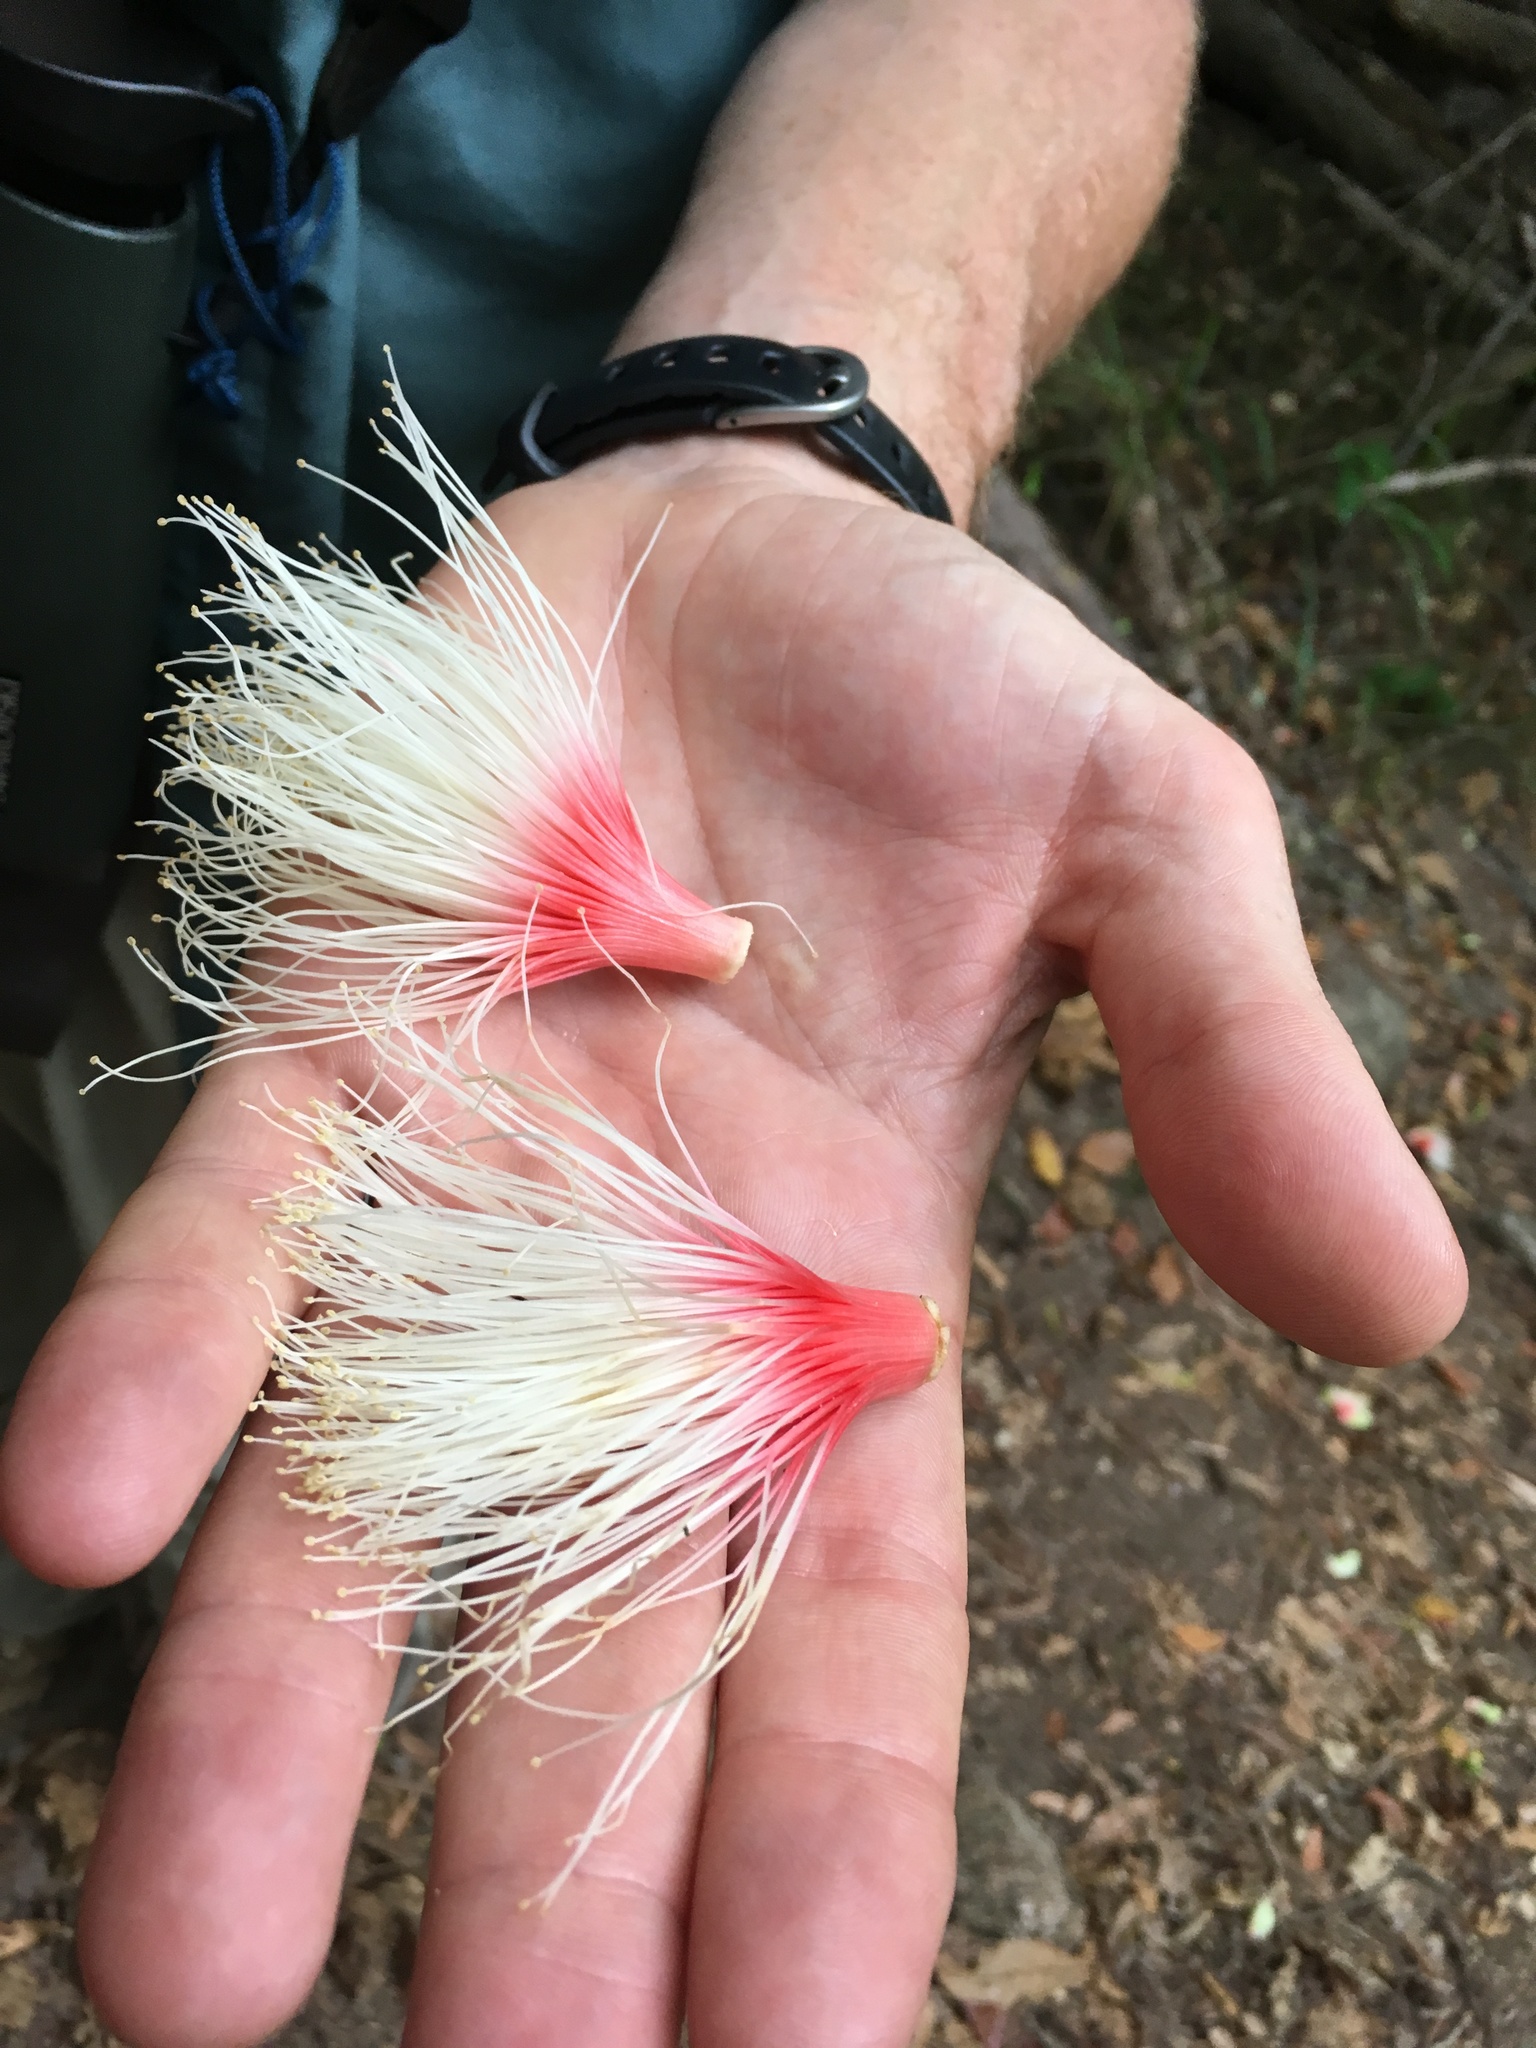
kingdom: Plantae
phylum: Tracheophyta
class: Magnoliopsida
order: Ericales
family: Lecythidaceae
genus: Planchonia
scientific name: Planchonia careya
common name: Cockatoo-apple
